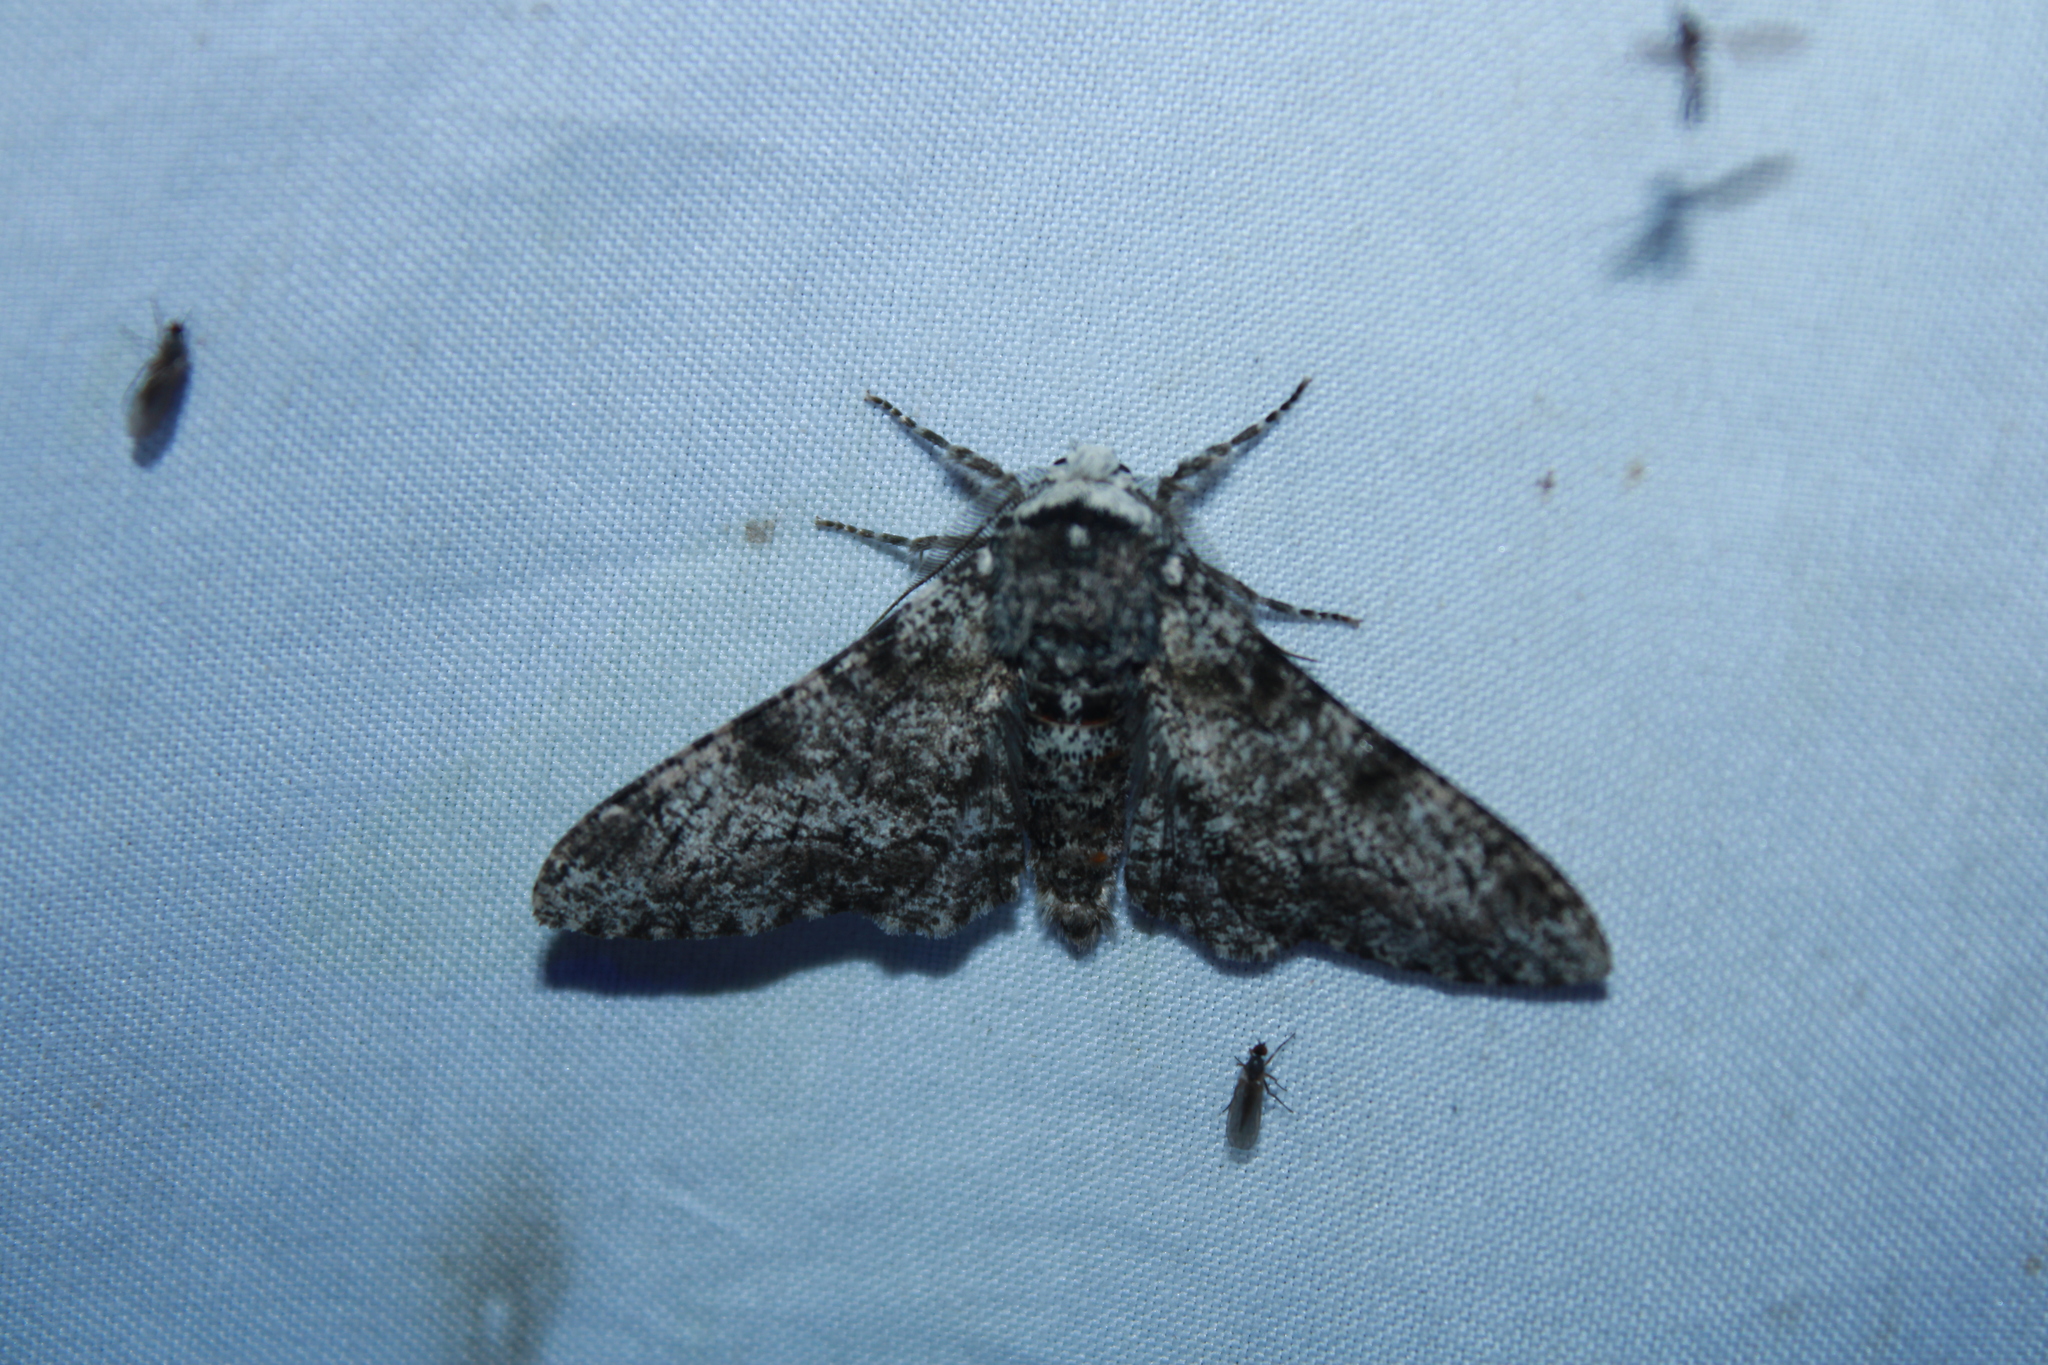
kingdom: Animalia
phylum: Arthropoda
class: Insecta
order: Lepidoptera
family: Geometridae
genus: Biston
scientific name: Biston betularia
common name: Peppered moth
